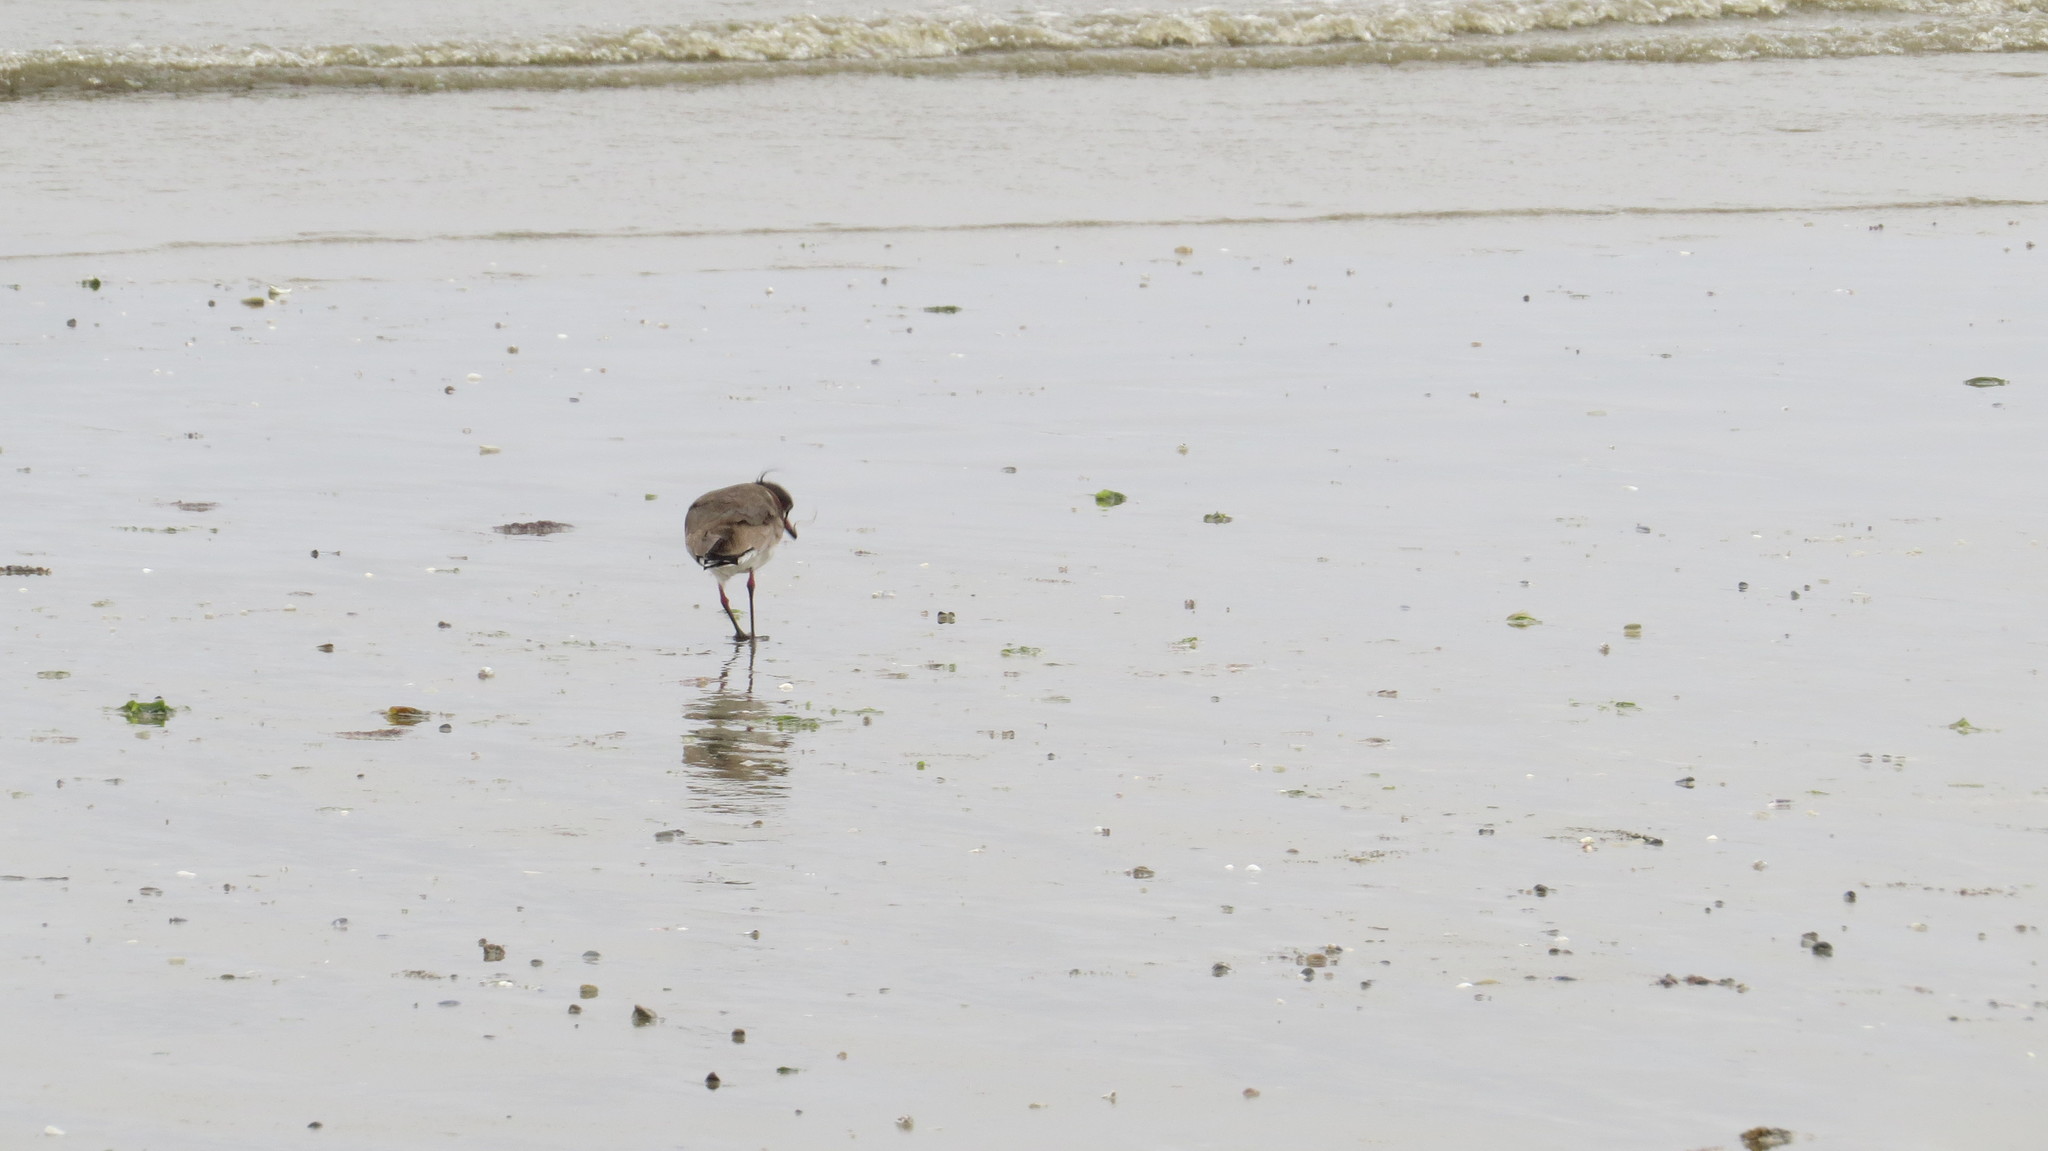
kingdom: Animalia
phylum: Chordata
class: Aves
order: Charadriiformes
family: Charadriidae
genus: Vanellus
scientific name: Vanellus chilensis
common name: Southern lapwing
